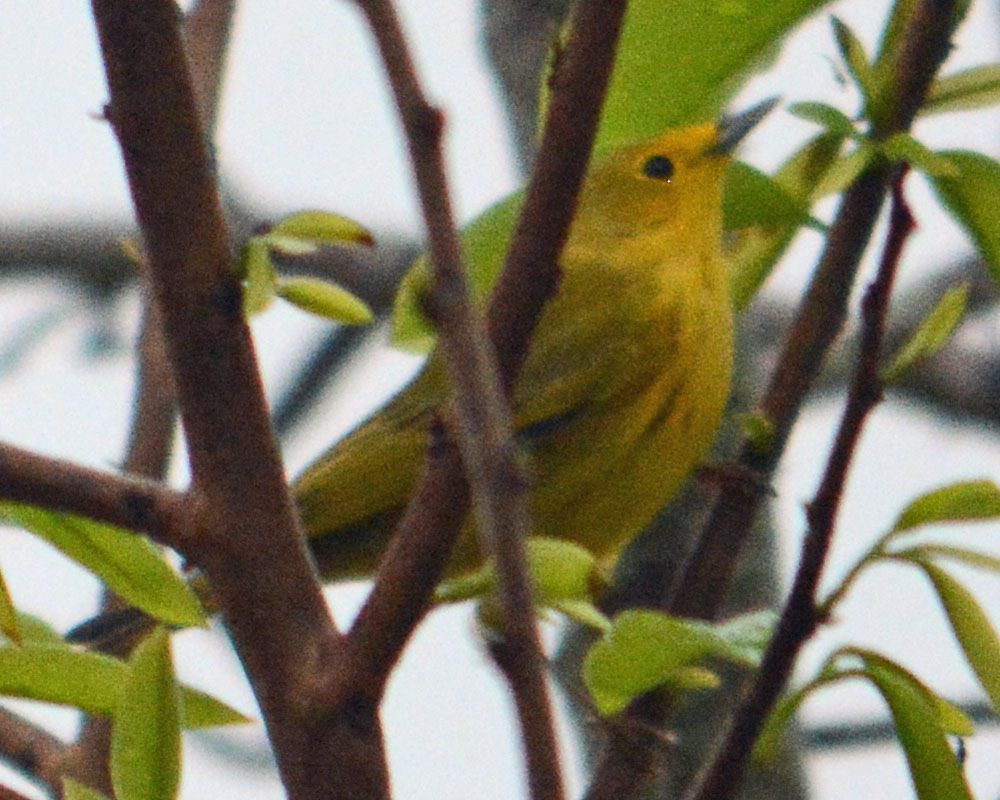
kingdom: Animalia
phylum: Chordata
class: Aves
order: Passeriformes
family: Parulidae
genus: Setophaga
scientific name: Setophaga petechia
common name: Yellow warbler
